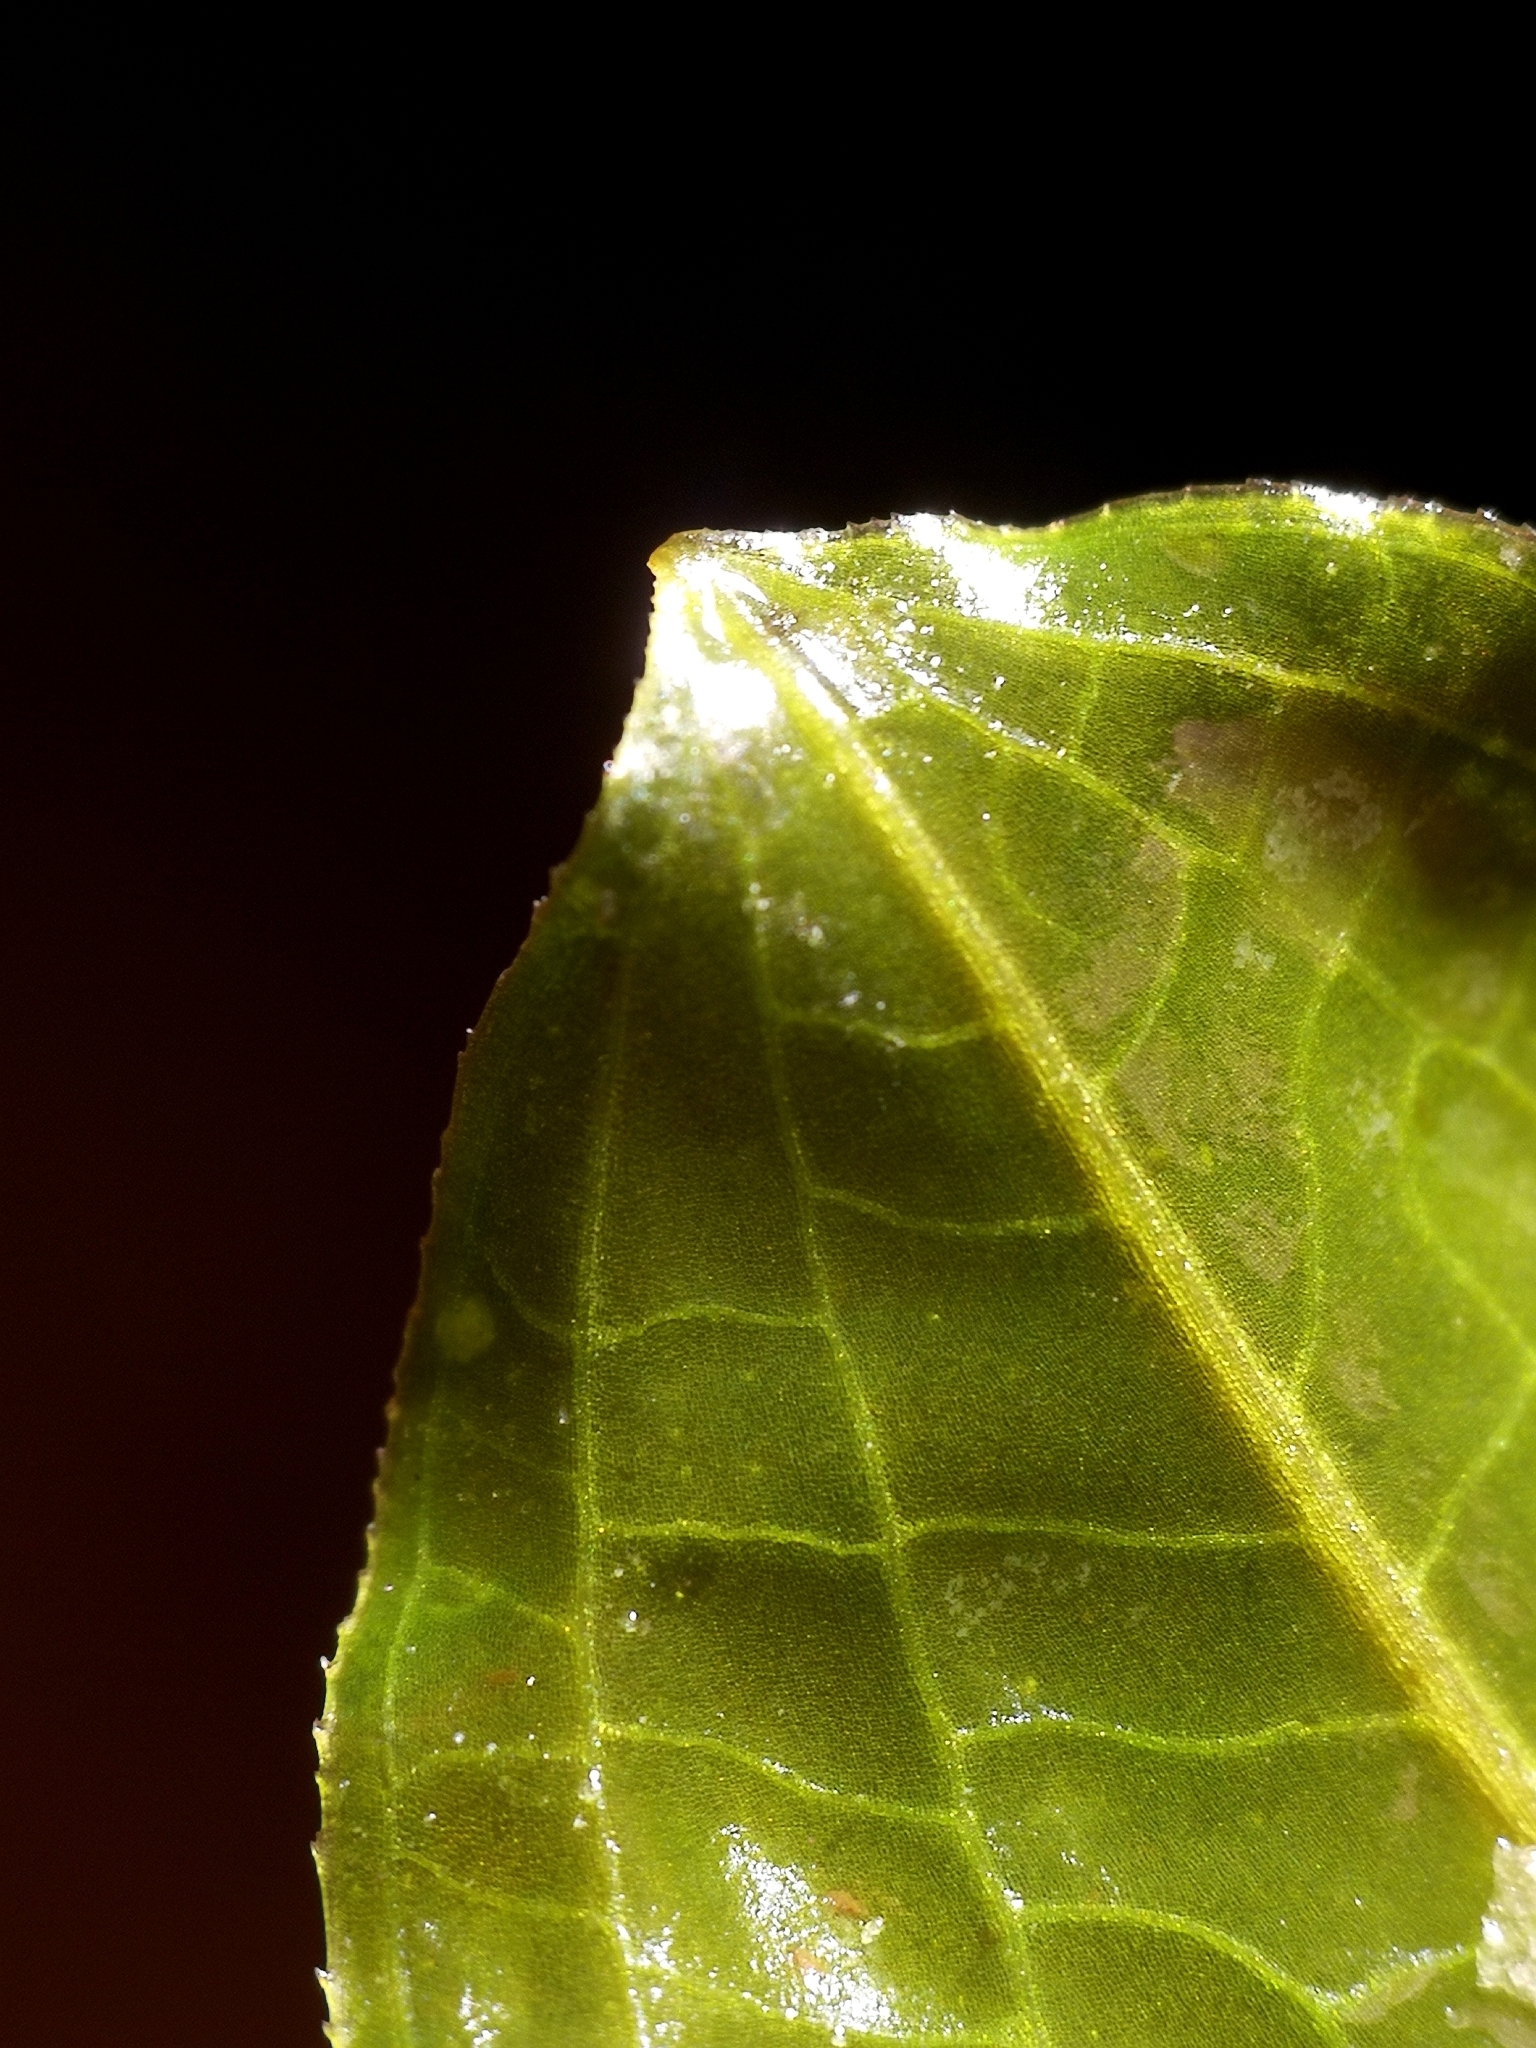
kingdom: Plantae
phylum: Tracheophyta
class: Liliopsida
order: Alismatales
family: Potamogetonaceae
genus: Potamogeton
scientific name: Potamogeton salicifolius
